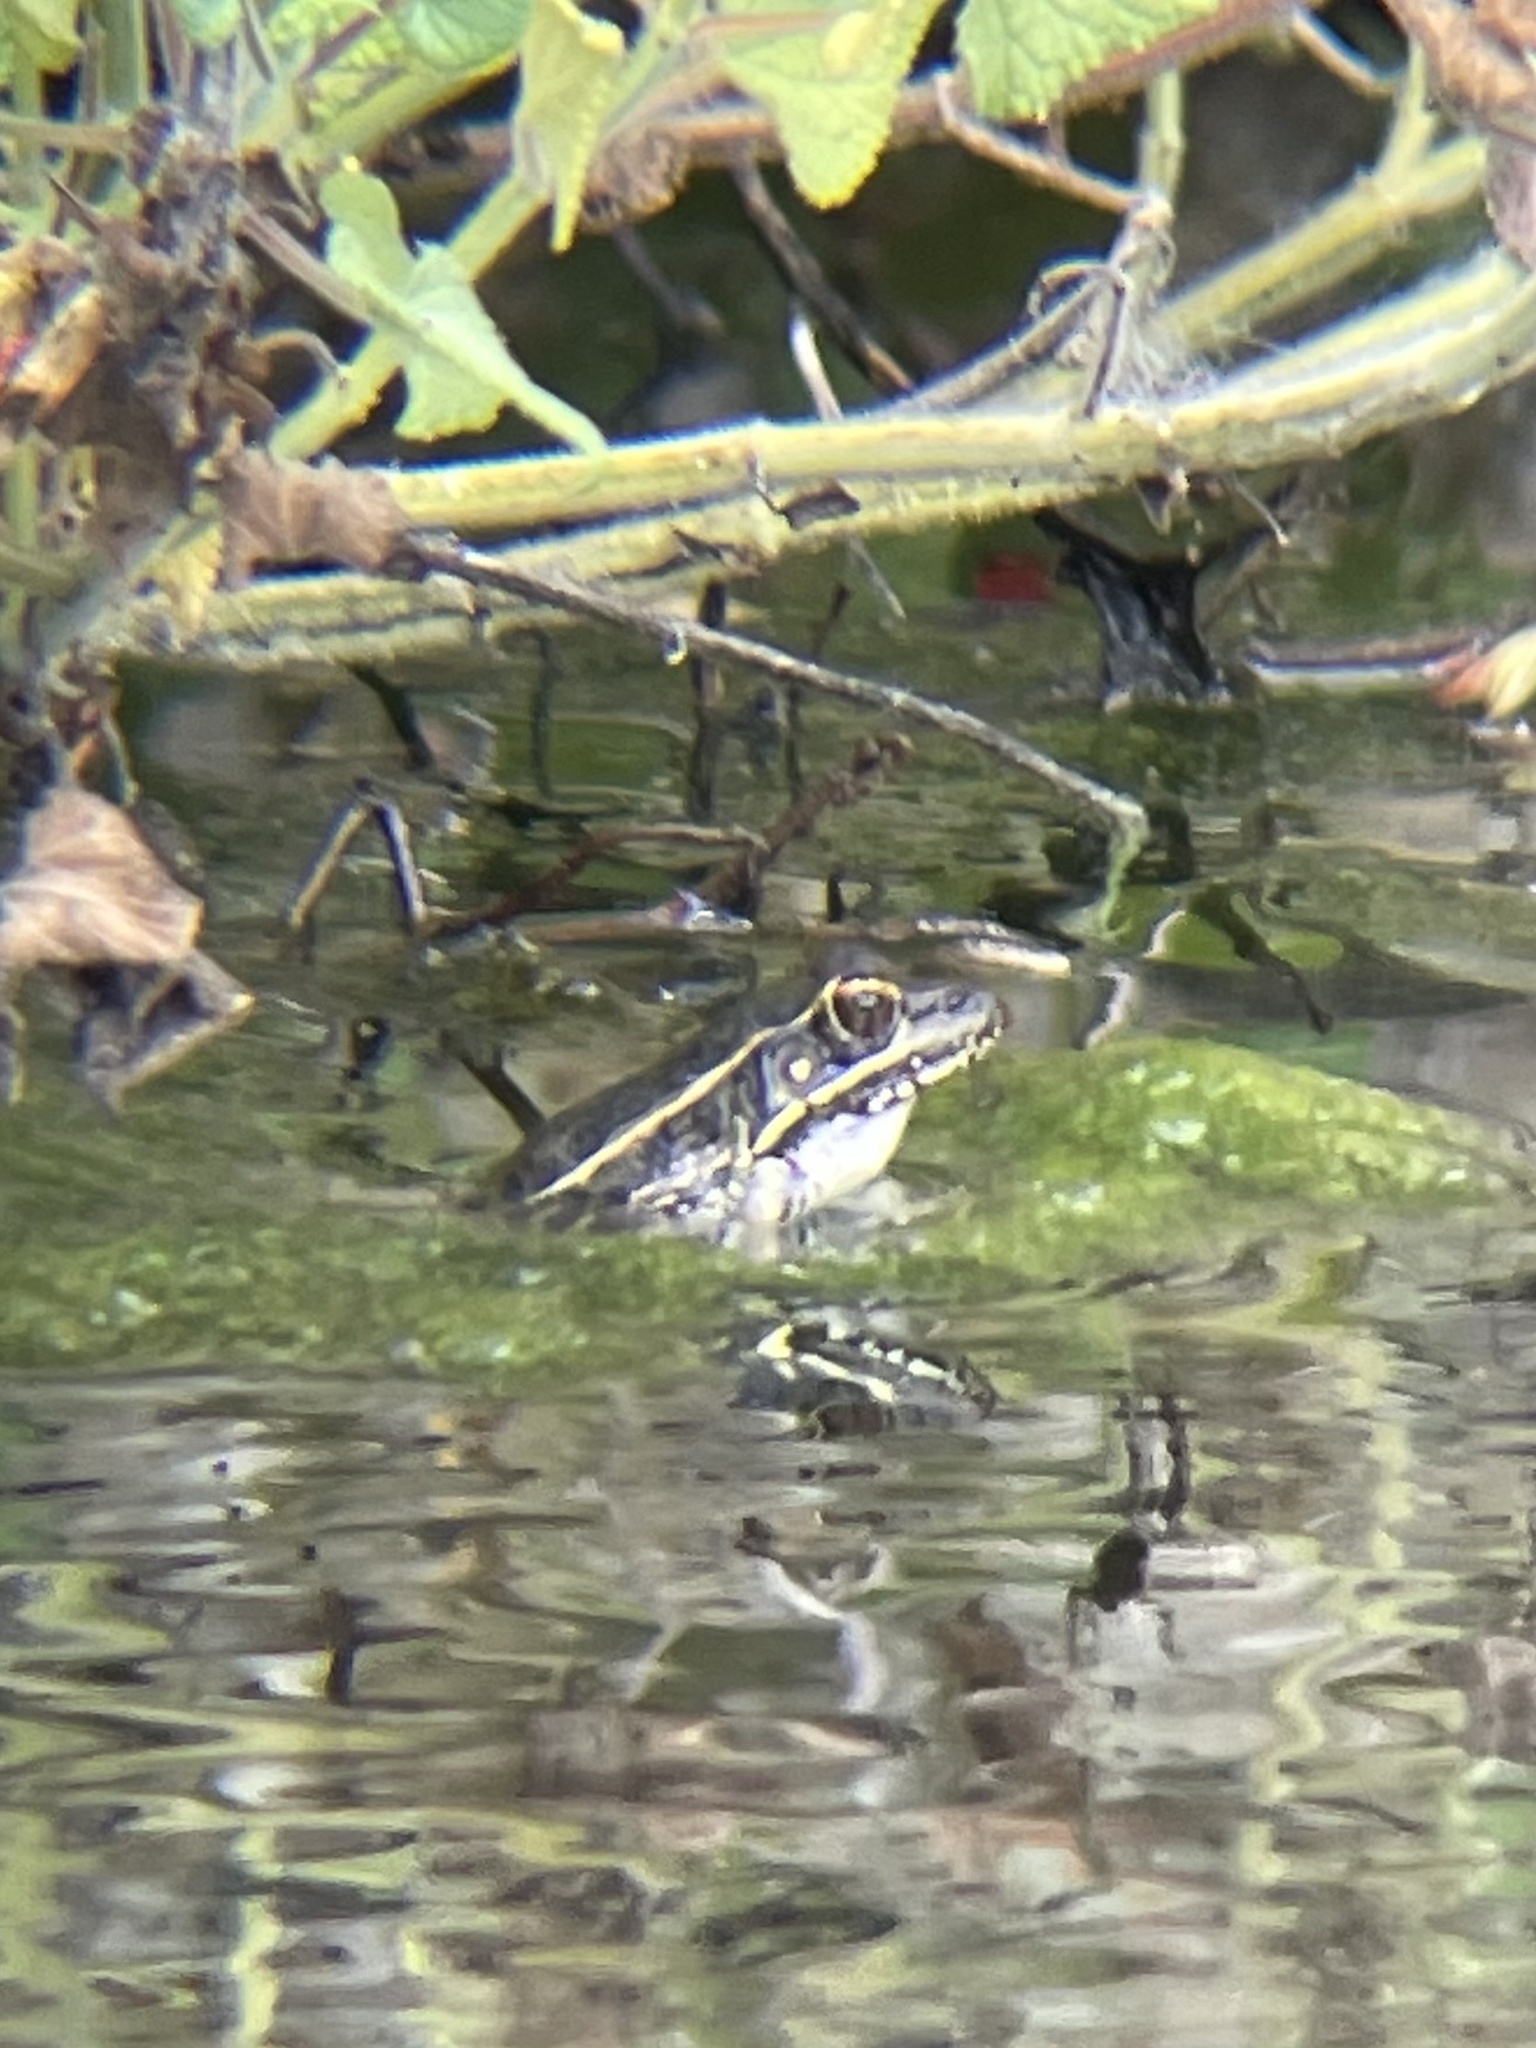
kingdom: Animalia
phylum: Chordata
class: Amphibia
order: Anura
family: Ranidae
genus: Lithobates
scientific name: Lithobates berlandieri
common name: Rio grande leopard frog
